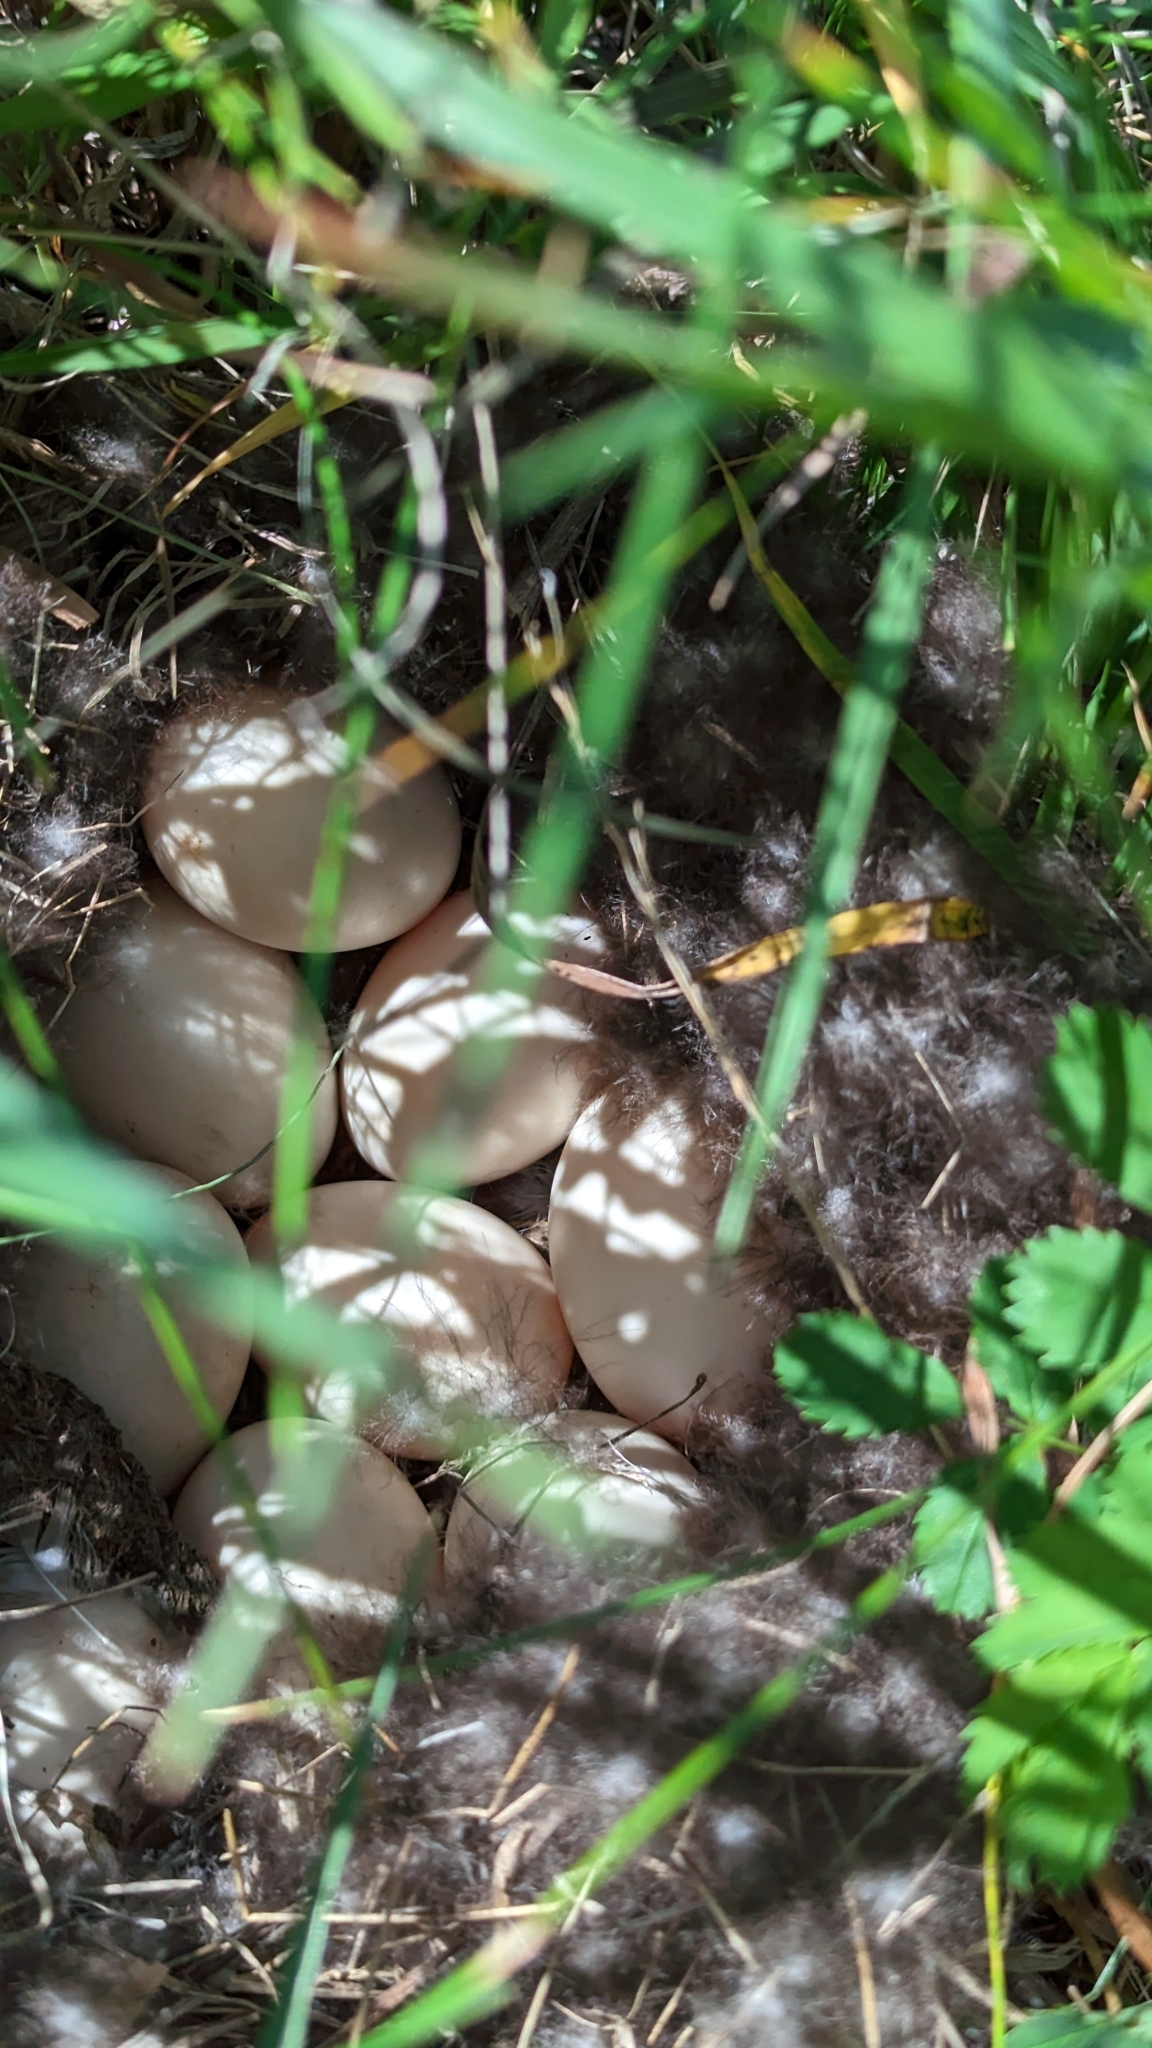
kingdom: Animalia
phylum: Chordata
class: Aves
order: Anseriformes
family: Anatidae
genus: Spatula
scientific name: Spatula discors
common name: Blue-winged teal
